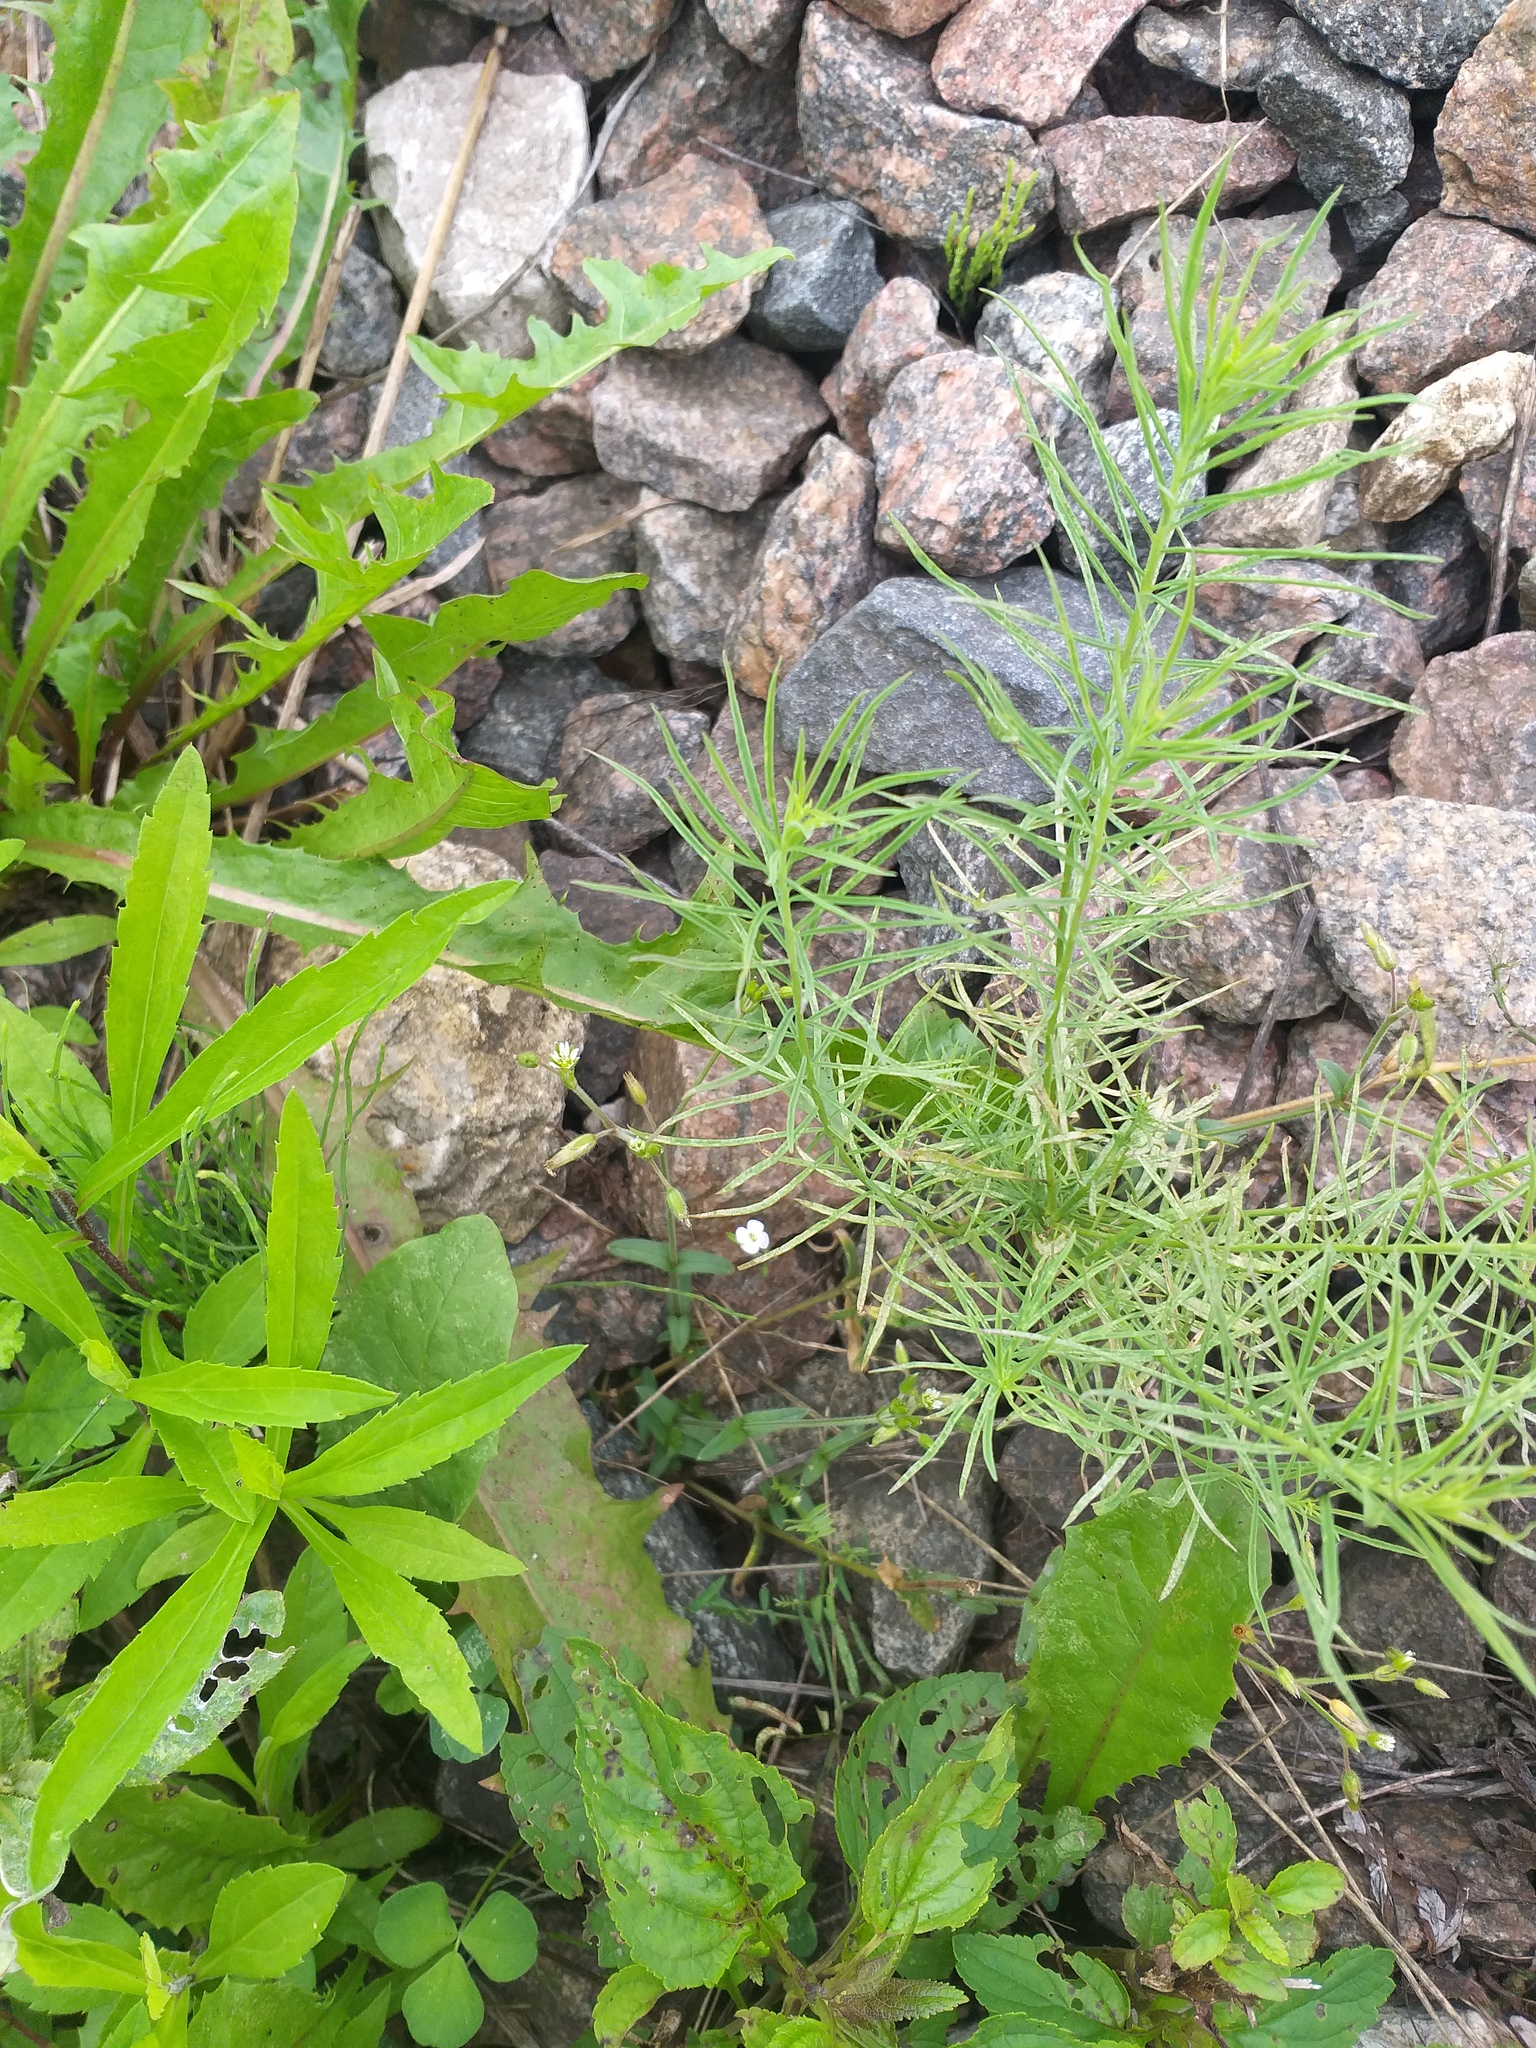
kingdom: Plantae
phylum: Tracheophyta
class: Magnoliopsida
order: Caryophyllales
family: Caryophyllaceae
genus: Cerastium
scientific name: Cerastium holosteoides
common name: Big chickweed
